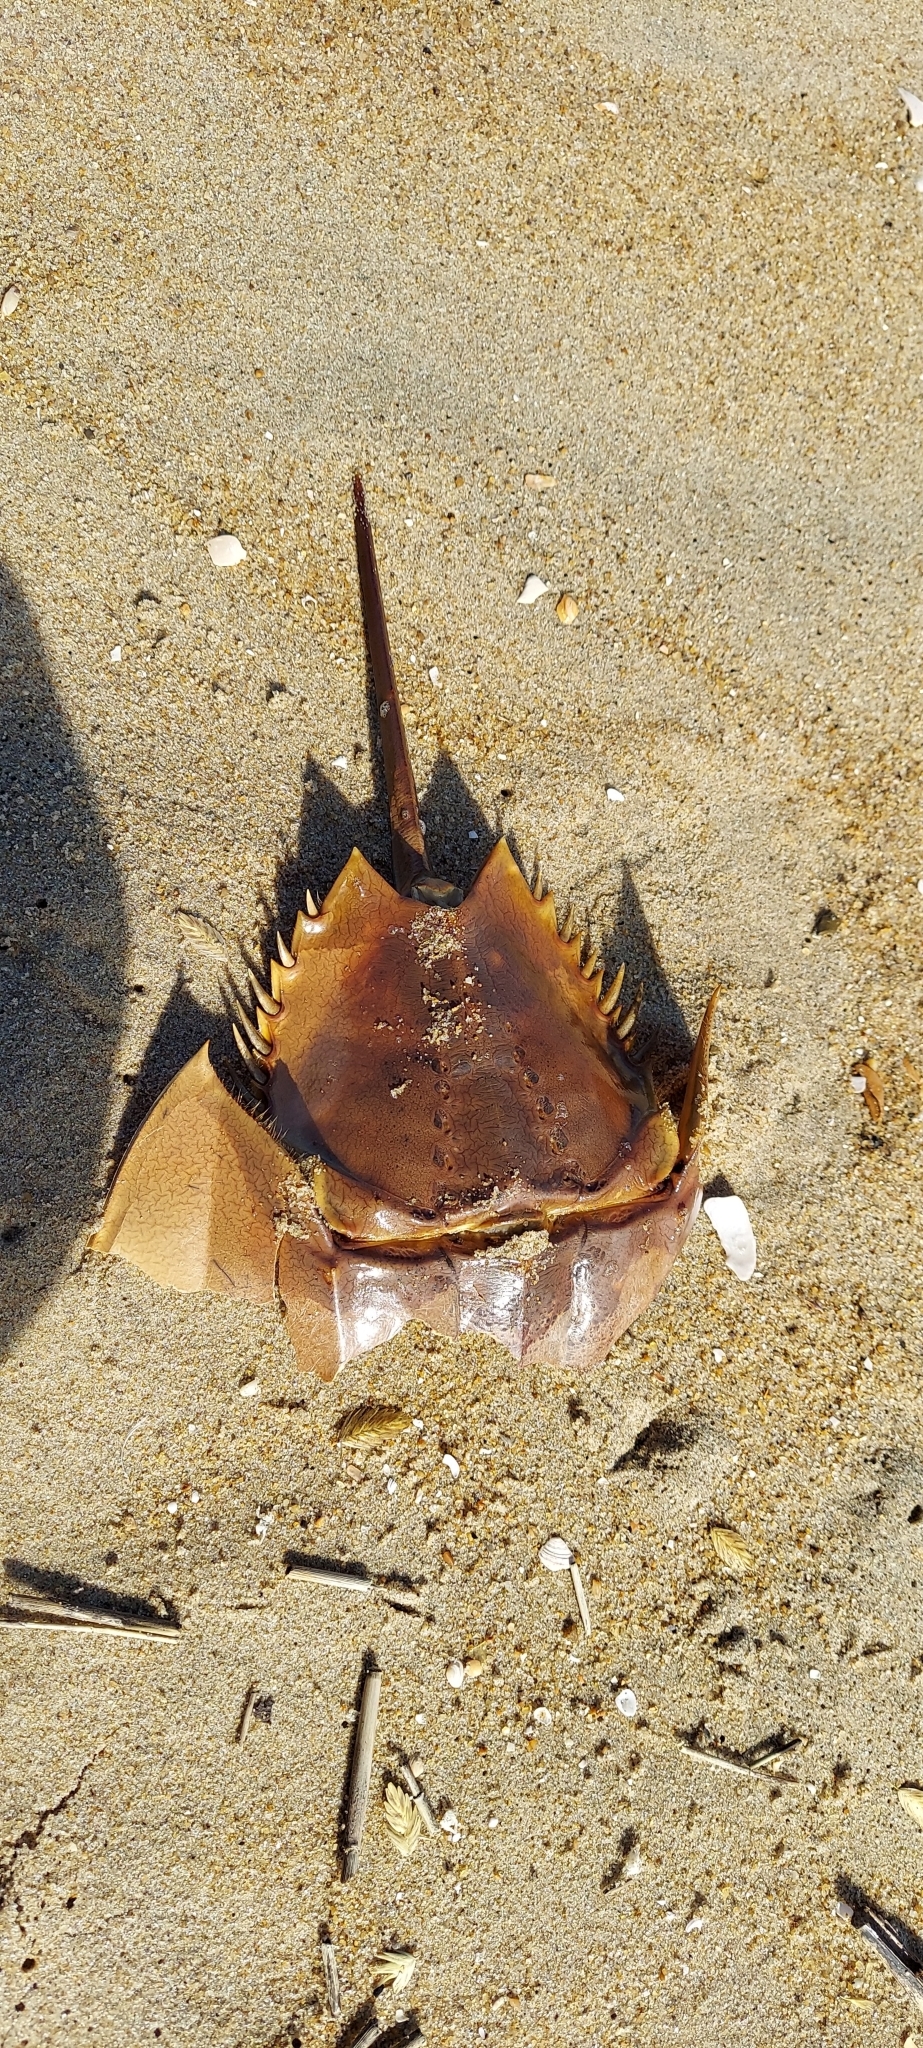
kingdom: Animalia
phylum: Arthropoda
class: Merostomata
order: Xiphosurida
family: Limulidae
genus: Limulus
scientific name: Limulus polyphemus
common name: Horseshoe crab
